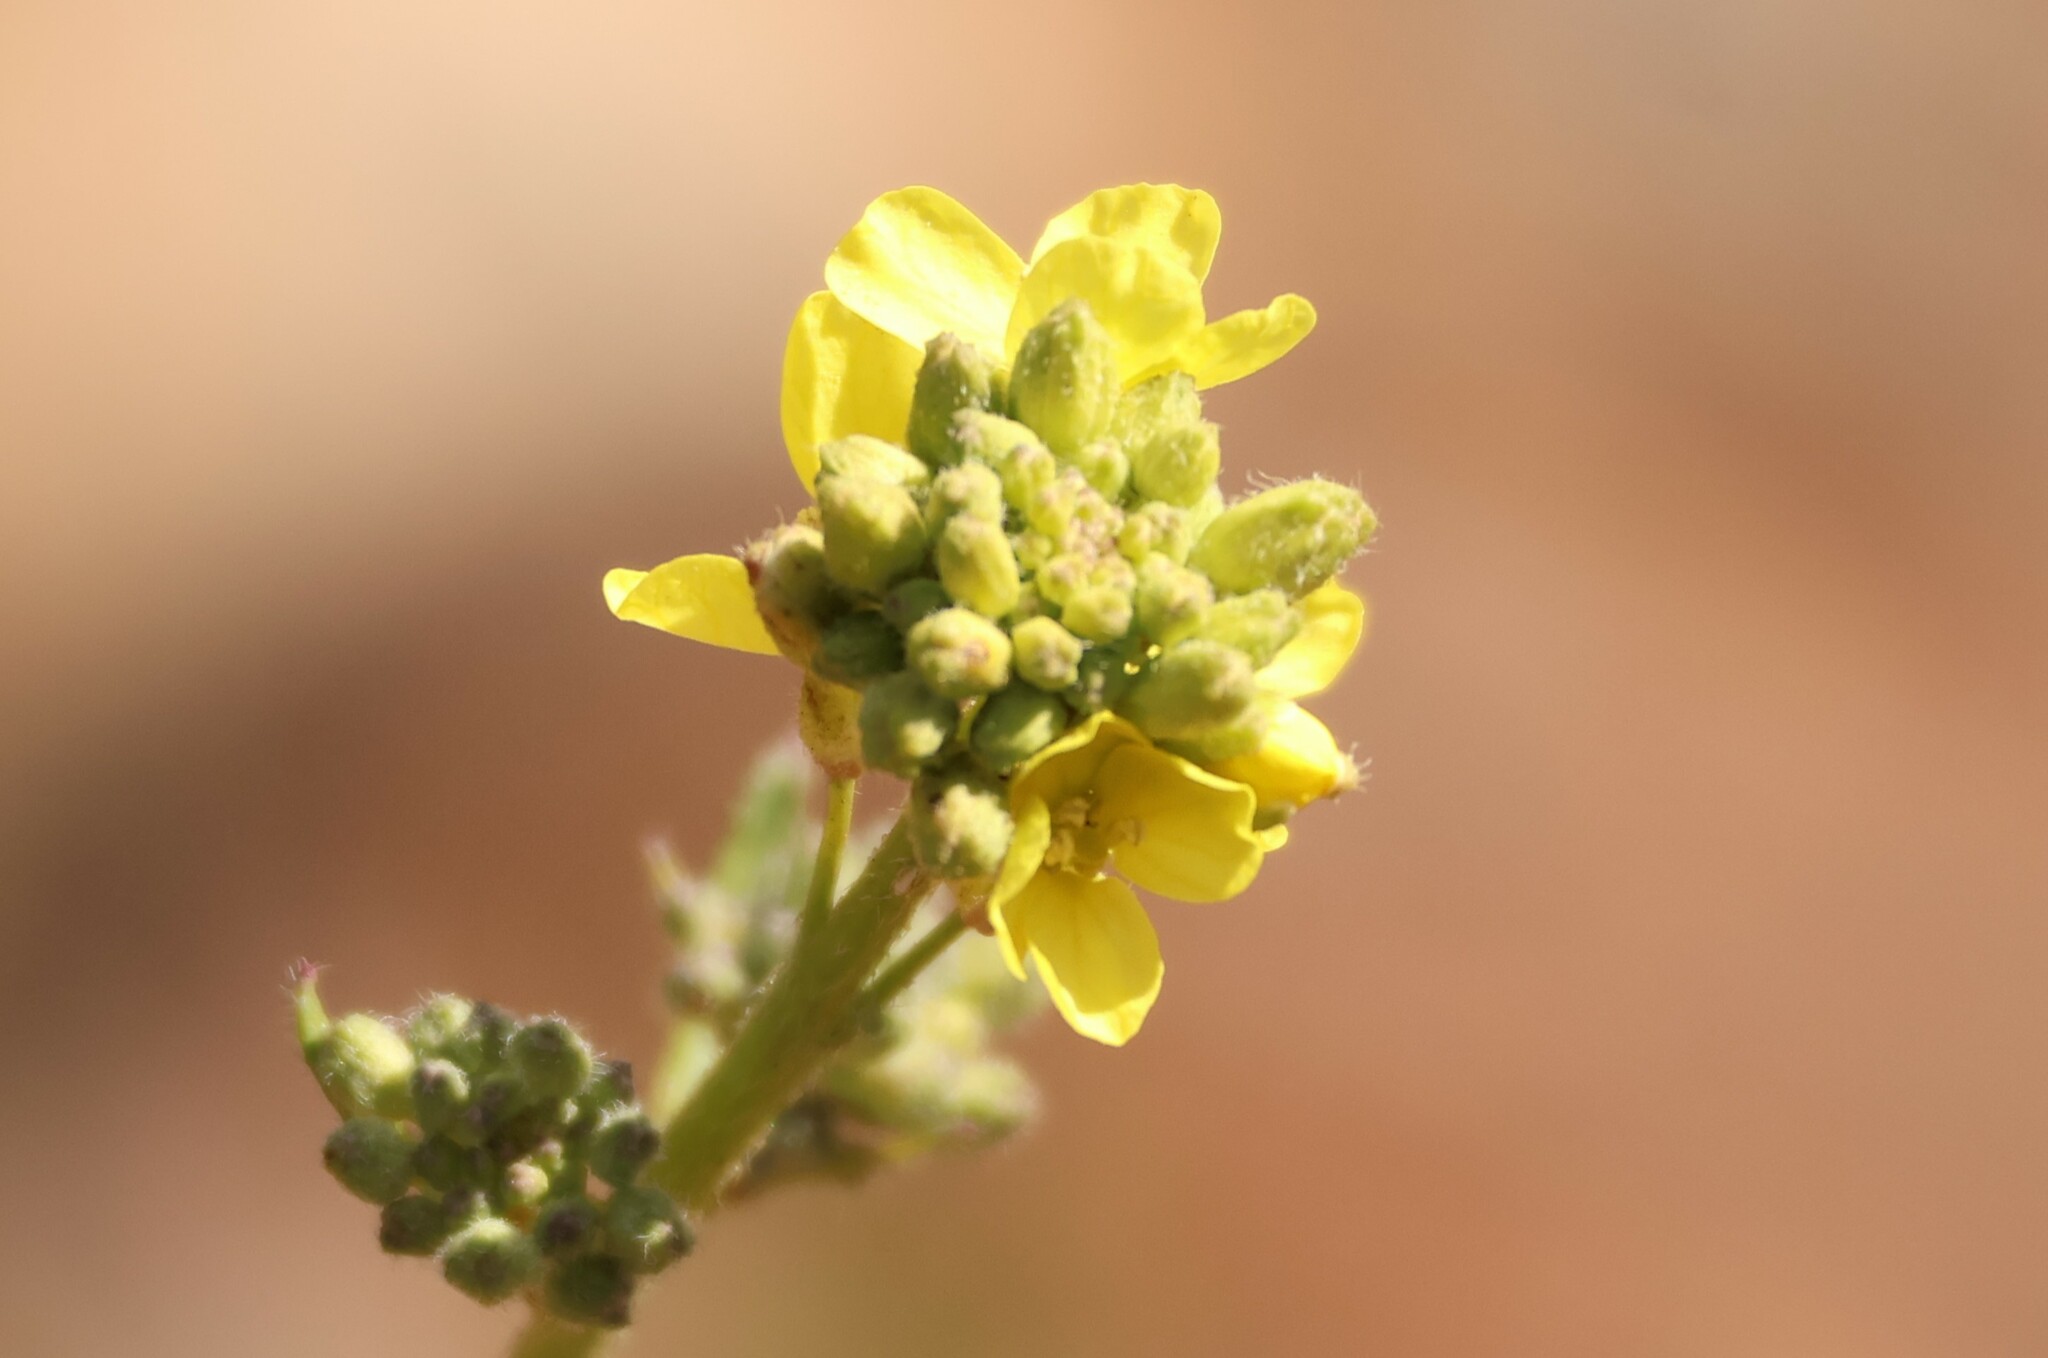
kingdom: Plantae
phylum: Tracheophyta
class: Magnoliopsida
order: Brassicales
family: Brassicaceae
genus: Hirschfeldia
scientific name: Hirschfeldia incana
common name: Hoary mustard
